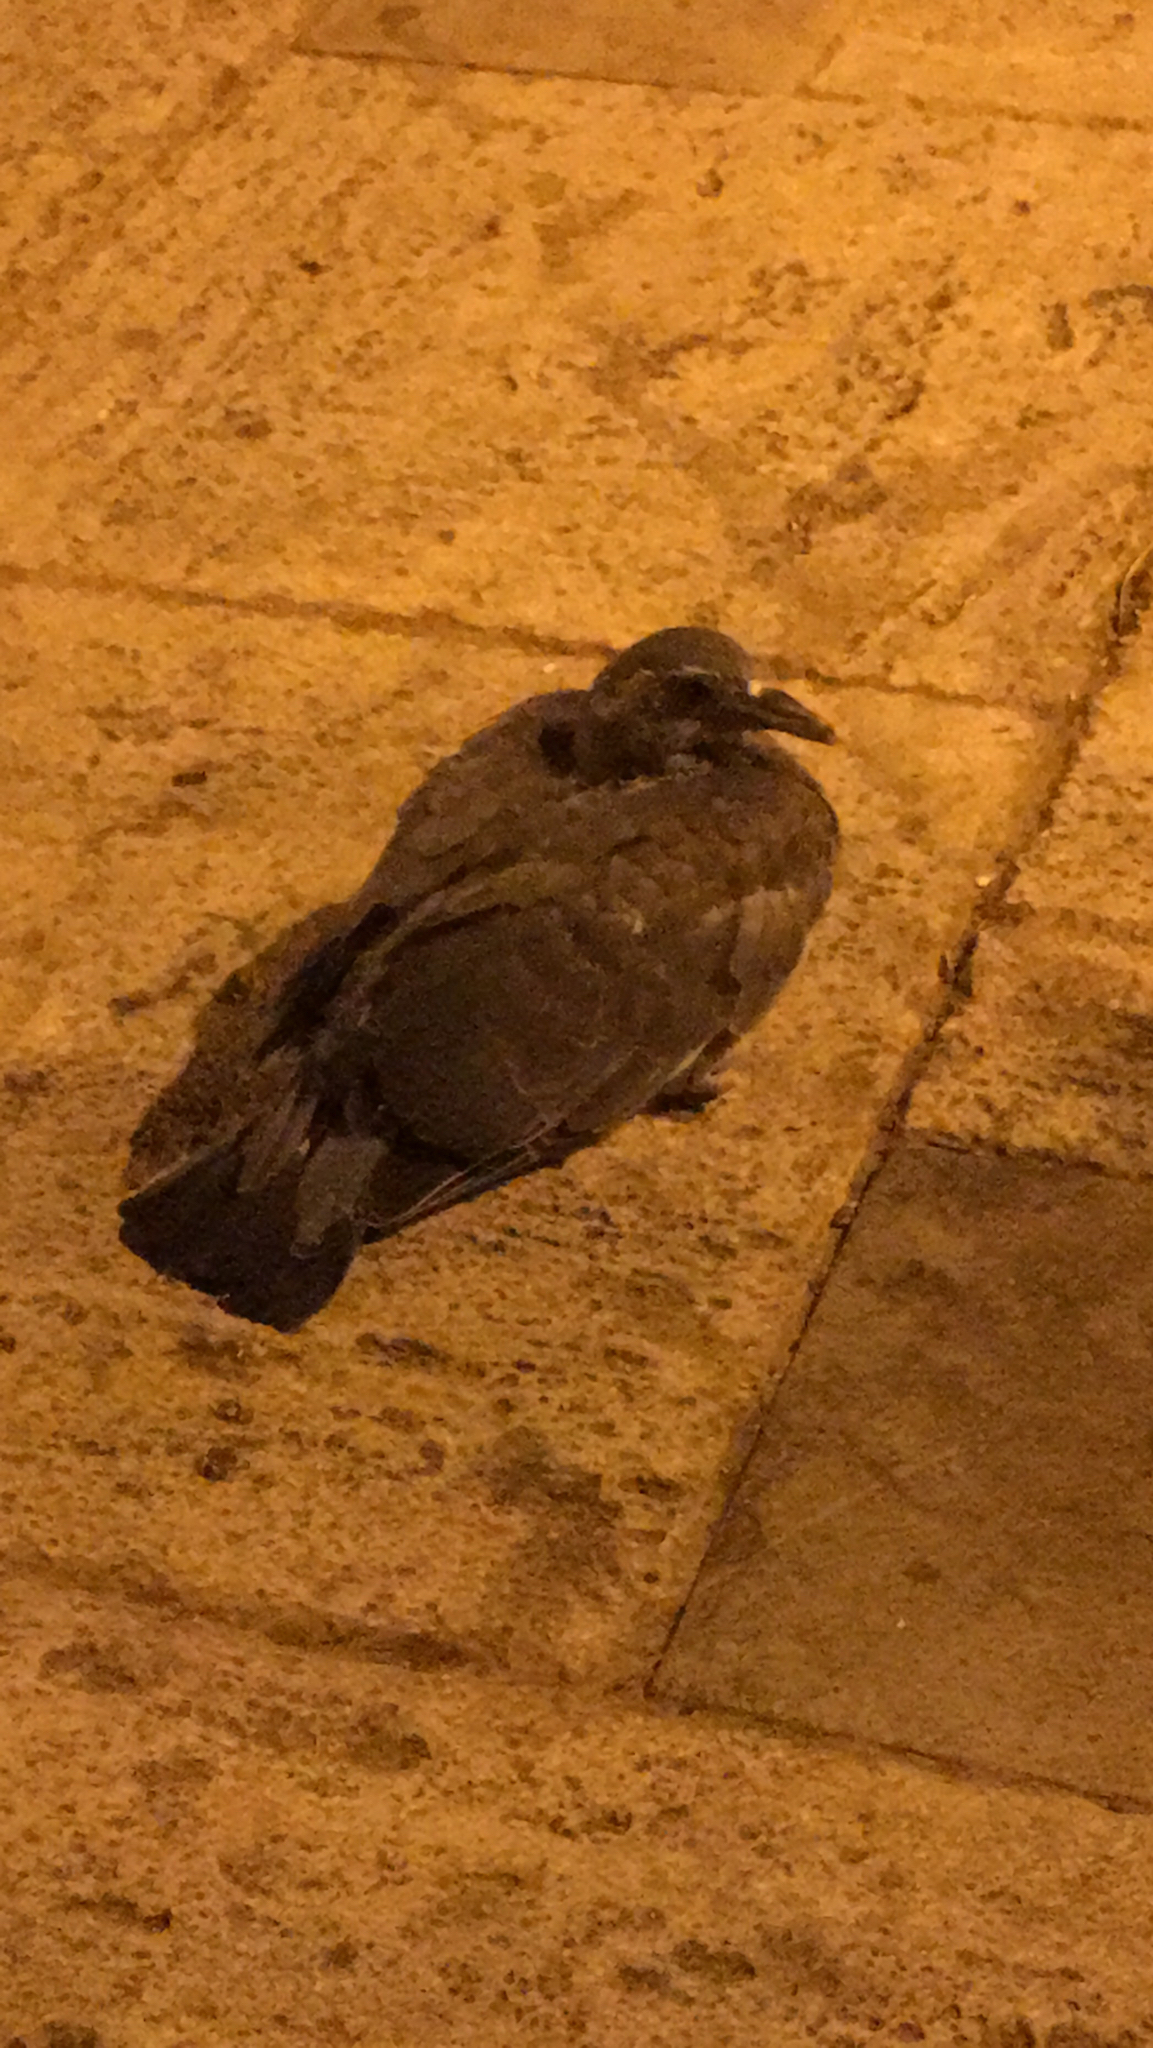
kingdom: Animalia
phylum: Chordata
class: Aves
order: Columbiformes
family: Columbidae
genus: Columba
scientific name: Columba palumbus
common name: Common wood pigeon
